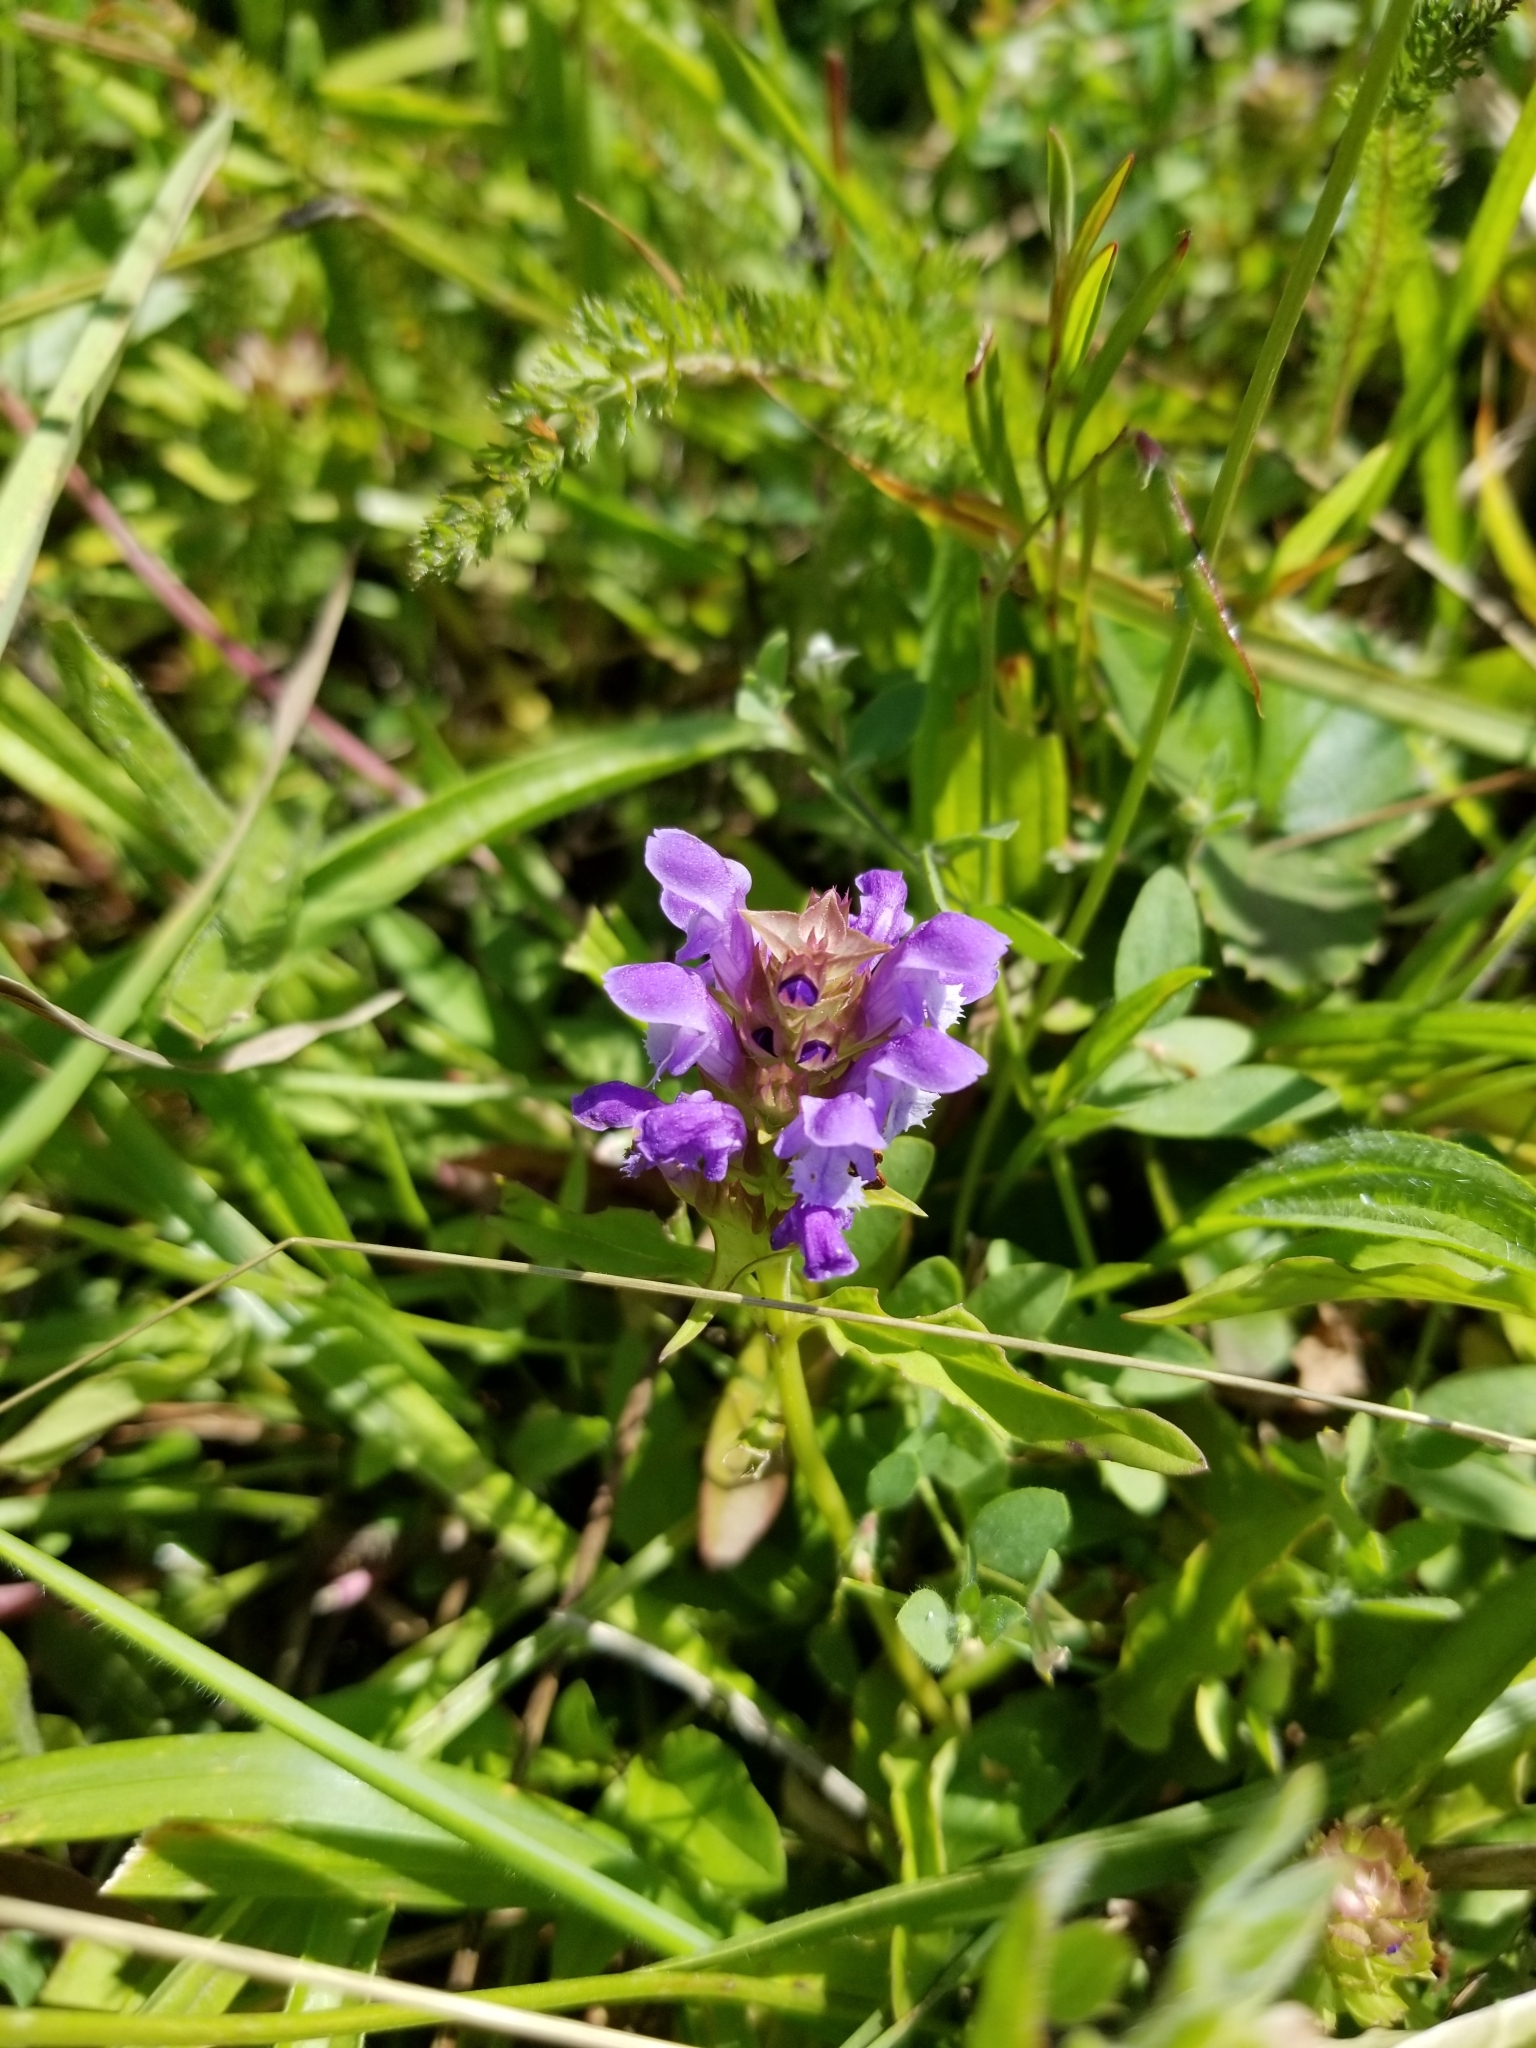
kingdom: Plantae
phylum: Tracheophyta
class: Magnoliopsida
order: Lamiales
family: Lamiaceae
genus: Prunella
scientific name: Prunella vulgaris
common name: Heal-all
